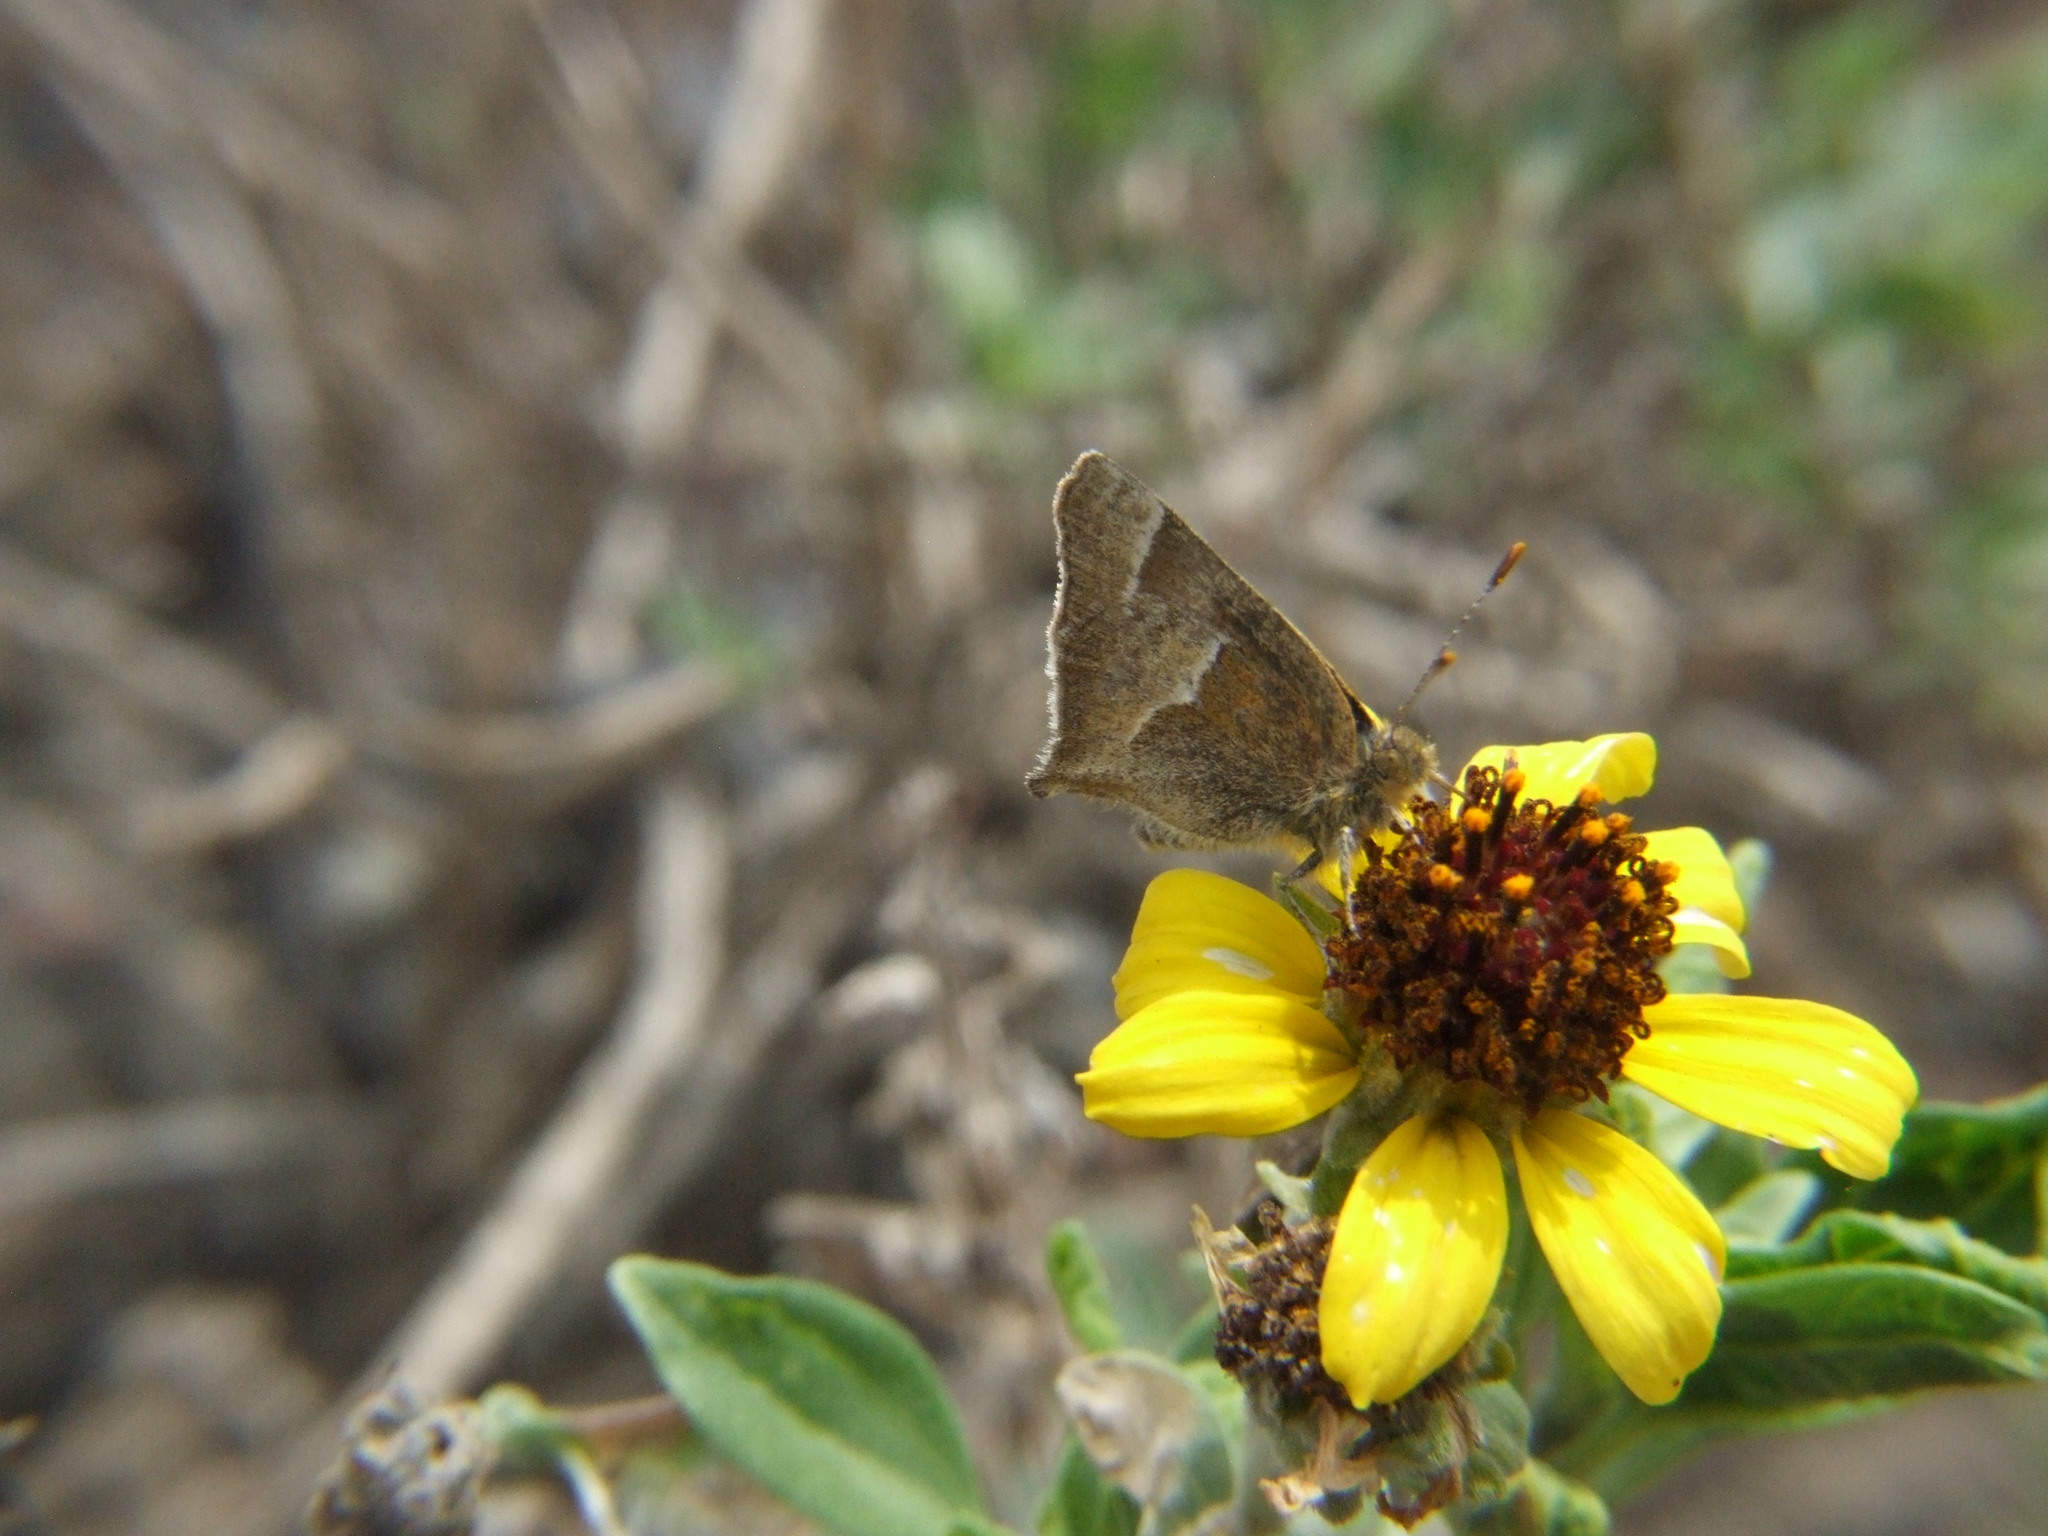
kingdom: Animalia
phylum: Arthropoda
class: Insecta
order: Lepidoptera
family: Lycaenidae
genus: Thaeides
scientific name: Thaeides
